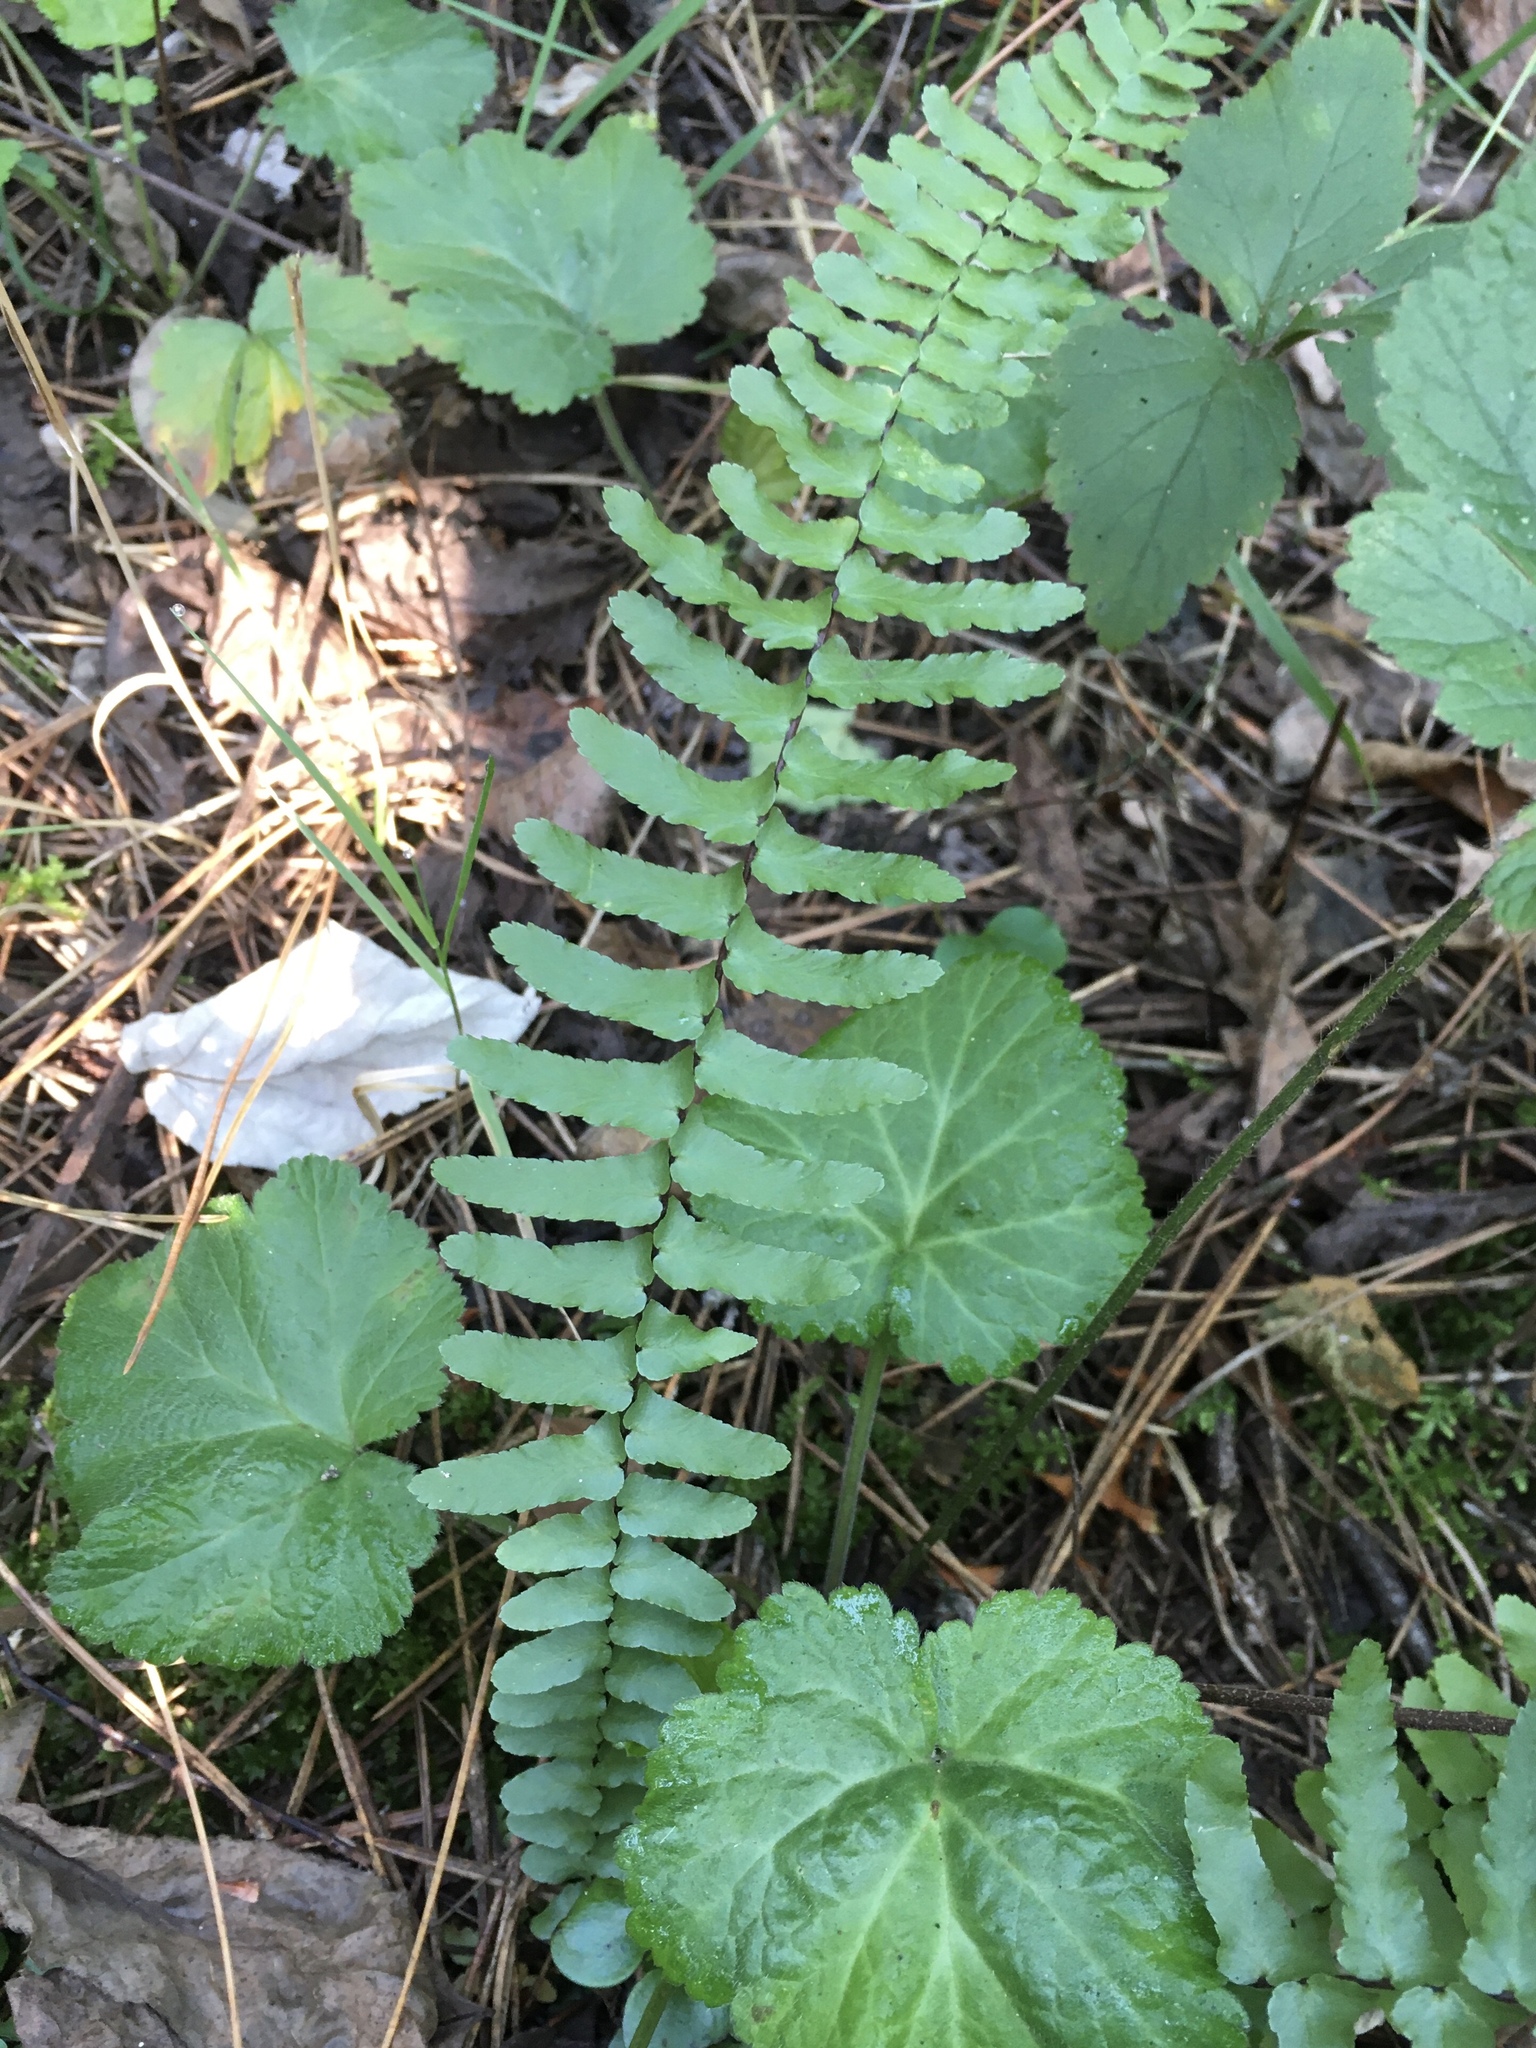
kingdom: Plantae
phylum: Tracheophyta
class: Polypodiopsida
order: Polypodiales
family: Aspleniaceae
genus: Asplenium
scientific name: Asplenium platyneuron
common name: Ebony spleenwort
